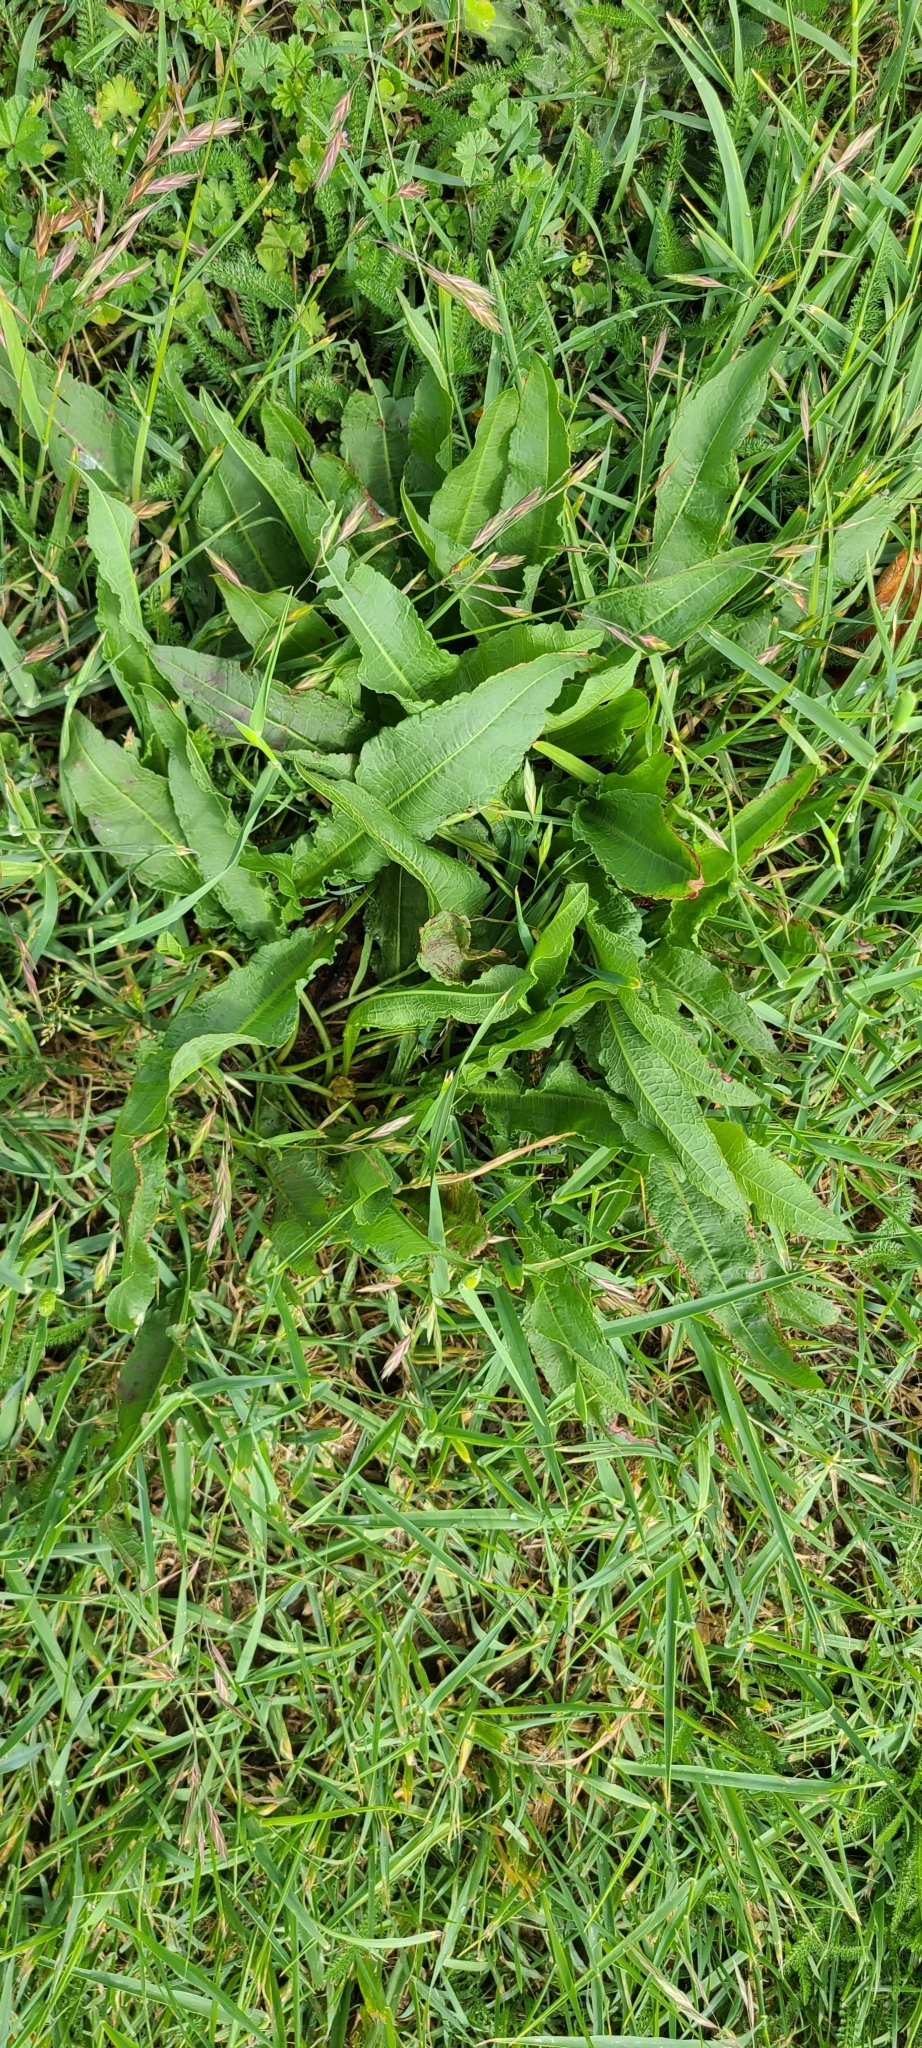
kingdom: Plantae
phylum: Tracheophyta
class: Magnoliopsida
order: Caryophyllales
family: Polygonaceae
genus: Rumex
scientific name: Rumex crispus
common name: Curled dock
